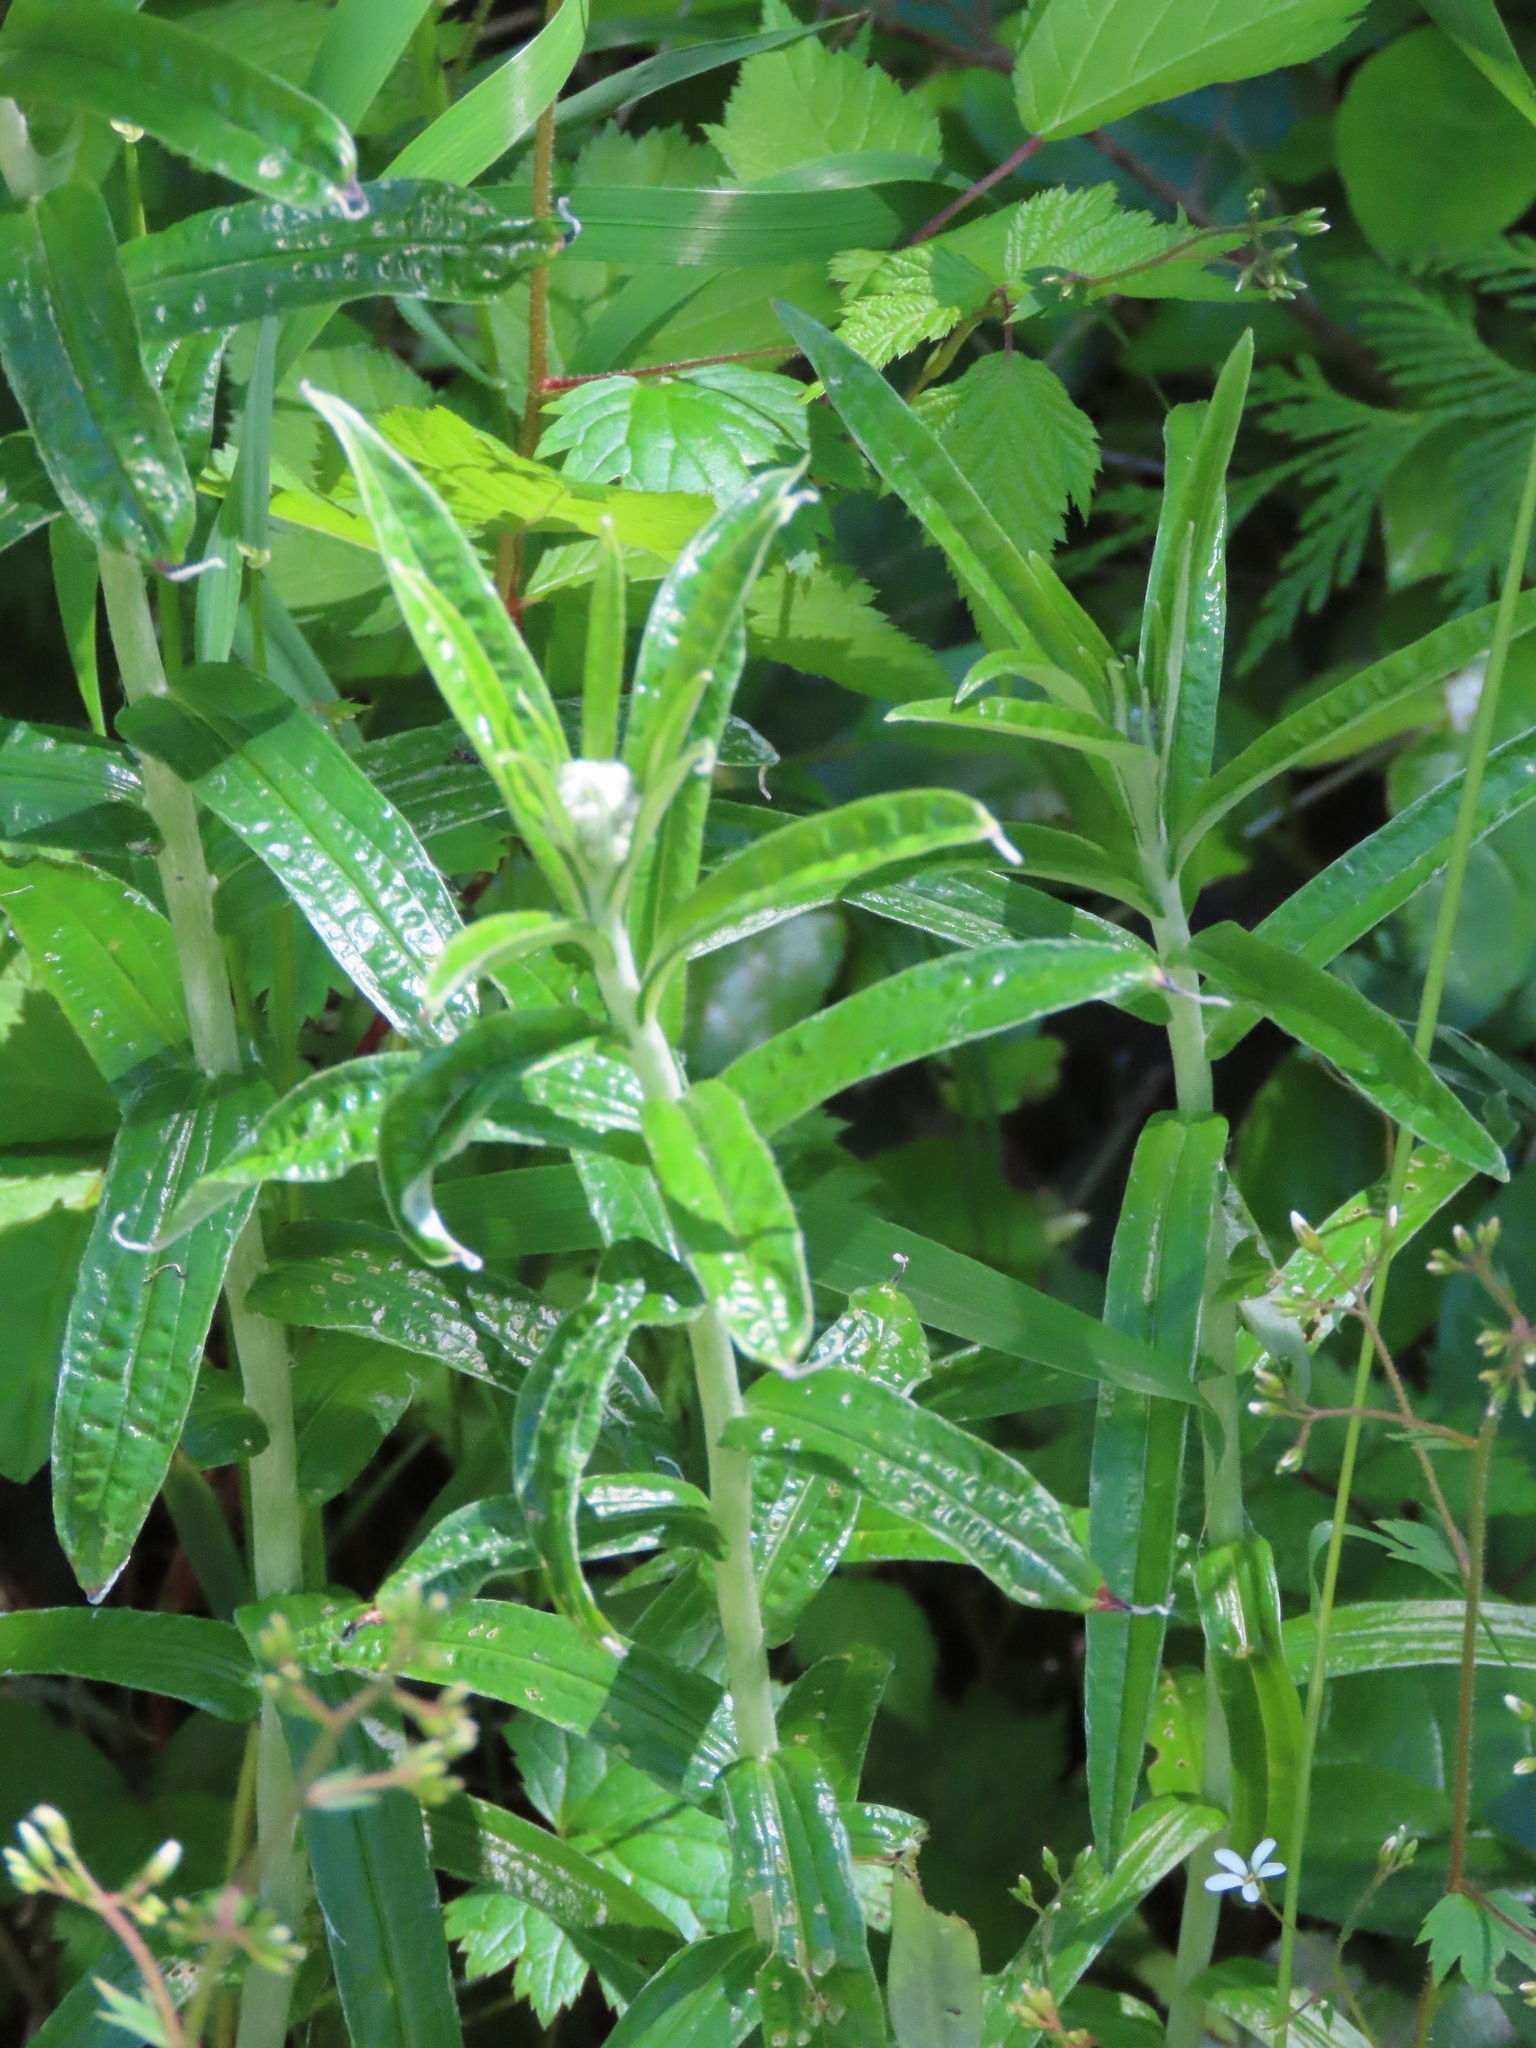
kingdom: Plantae
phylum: Tracheophyta
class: Magnoliopsida
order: Asterales
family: Asteraceae
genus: Anaphalis
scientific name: Anaphalis margaritacea
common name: Pearly everlasting
